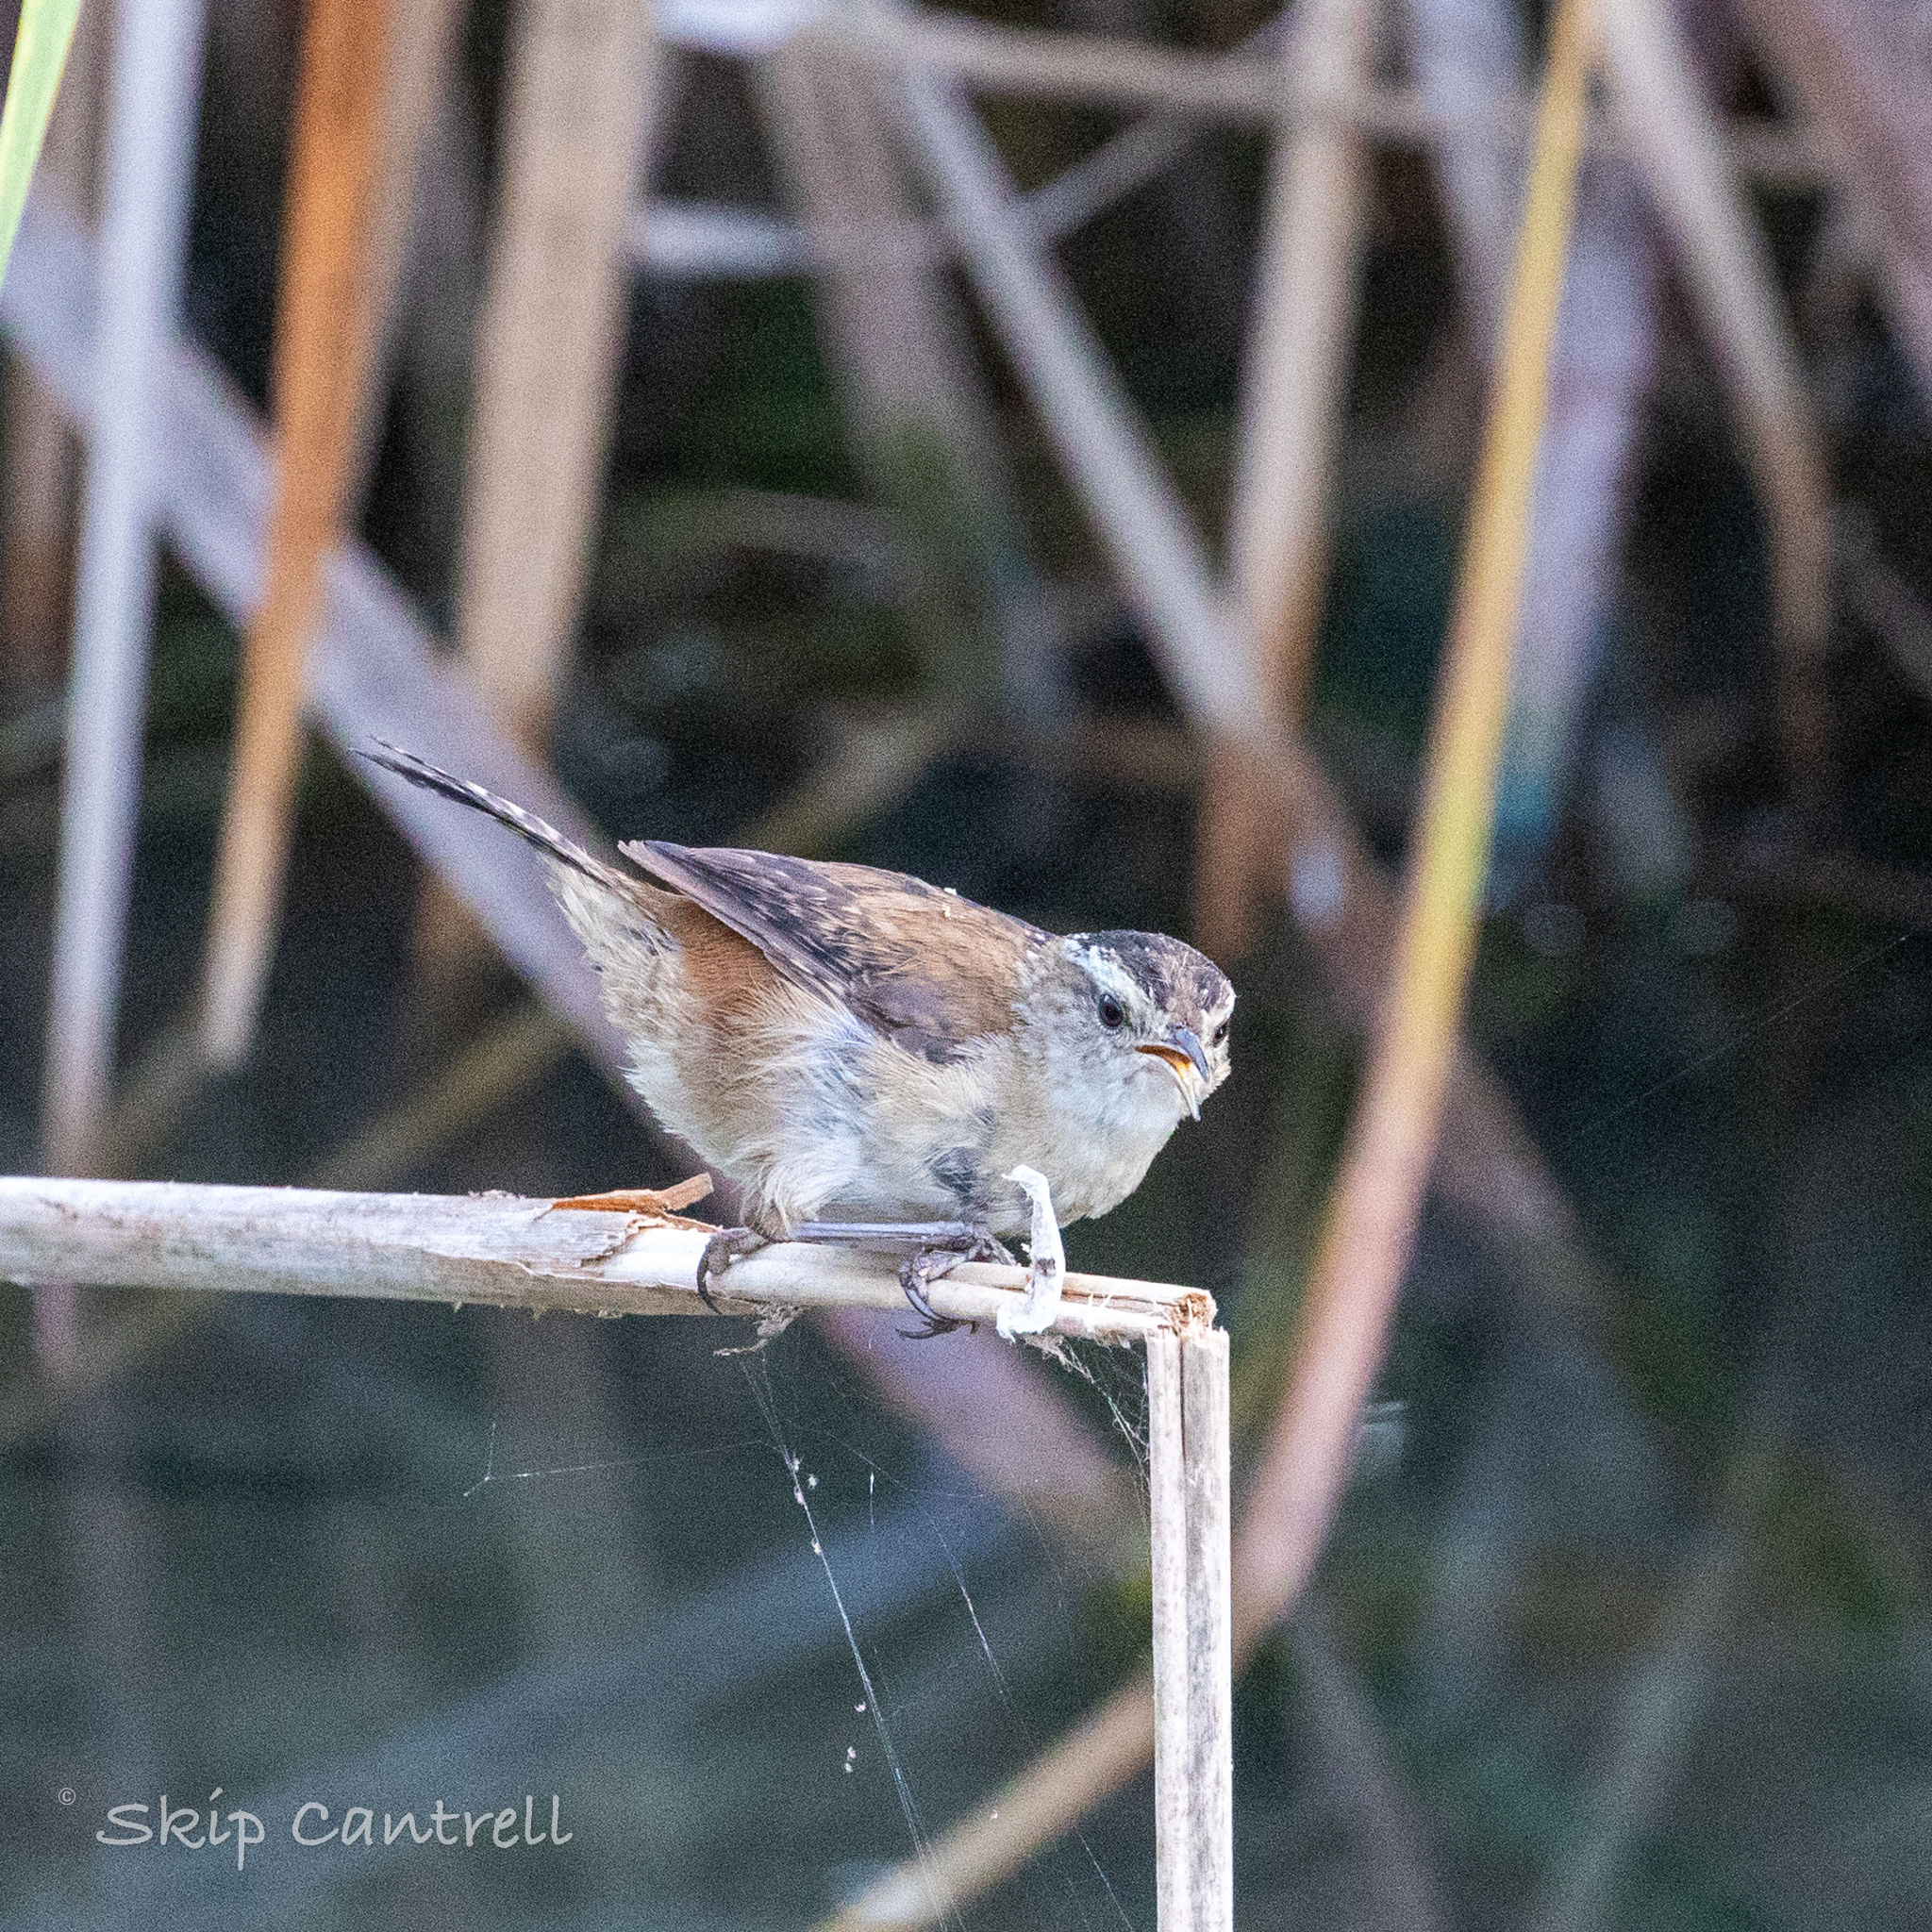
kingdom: Animalia
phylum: Chordata
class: Aves
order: Passeriformes
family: Troglodytidae
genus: Cistothorus
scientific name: Cistothorus palustris
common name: Marsh wren
